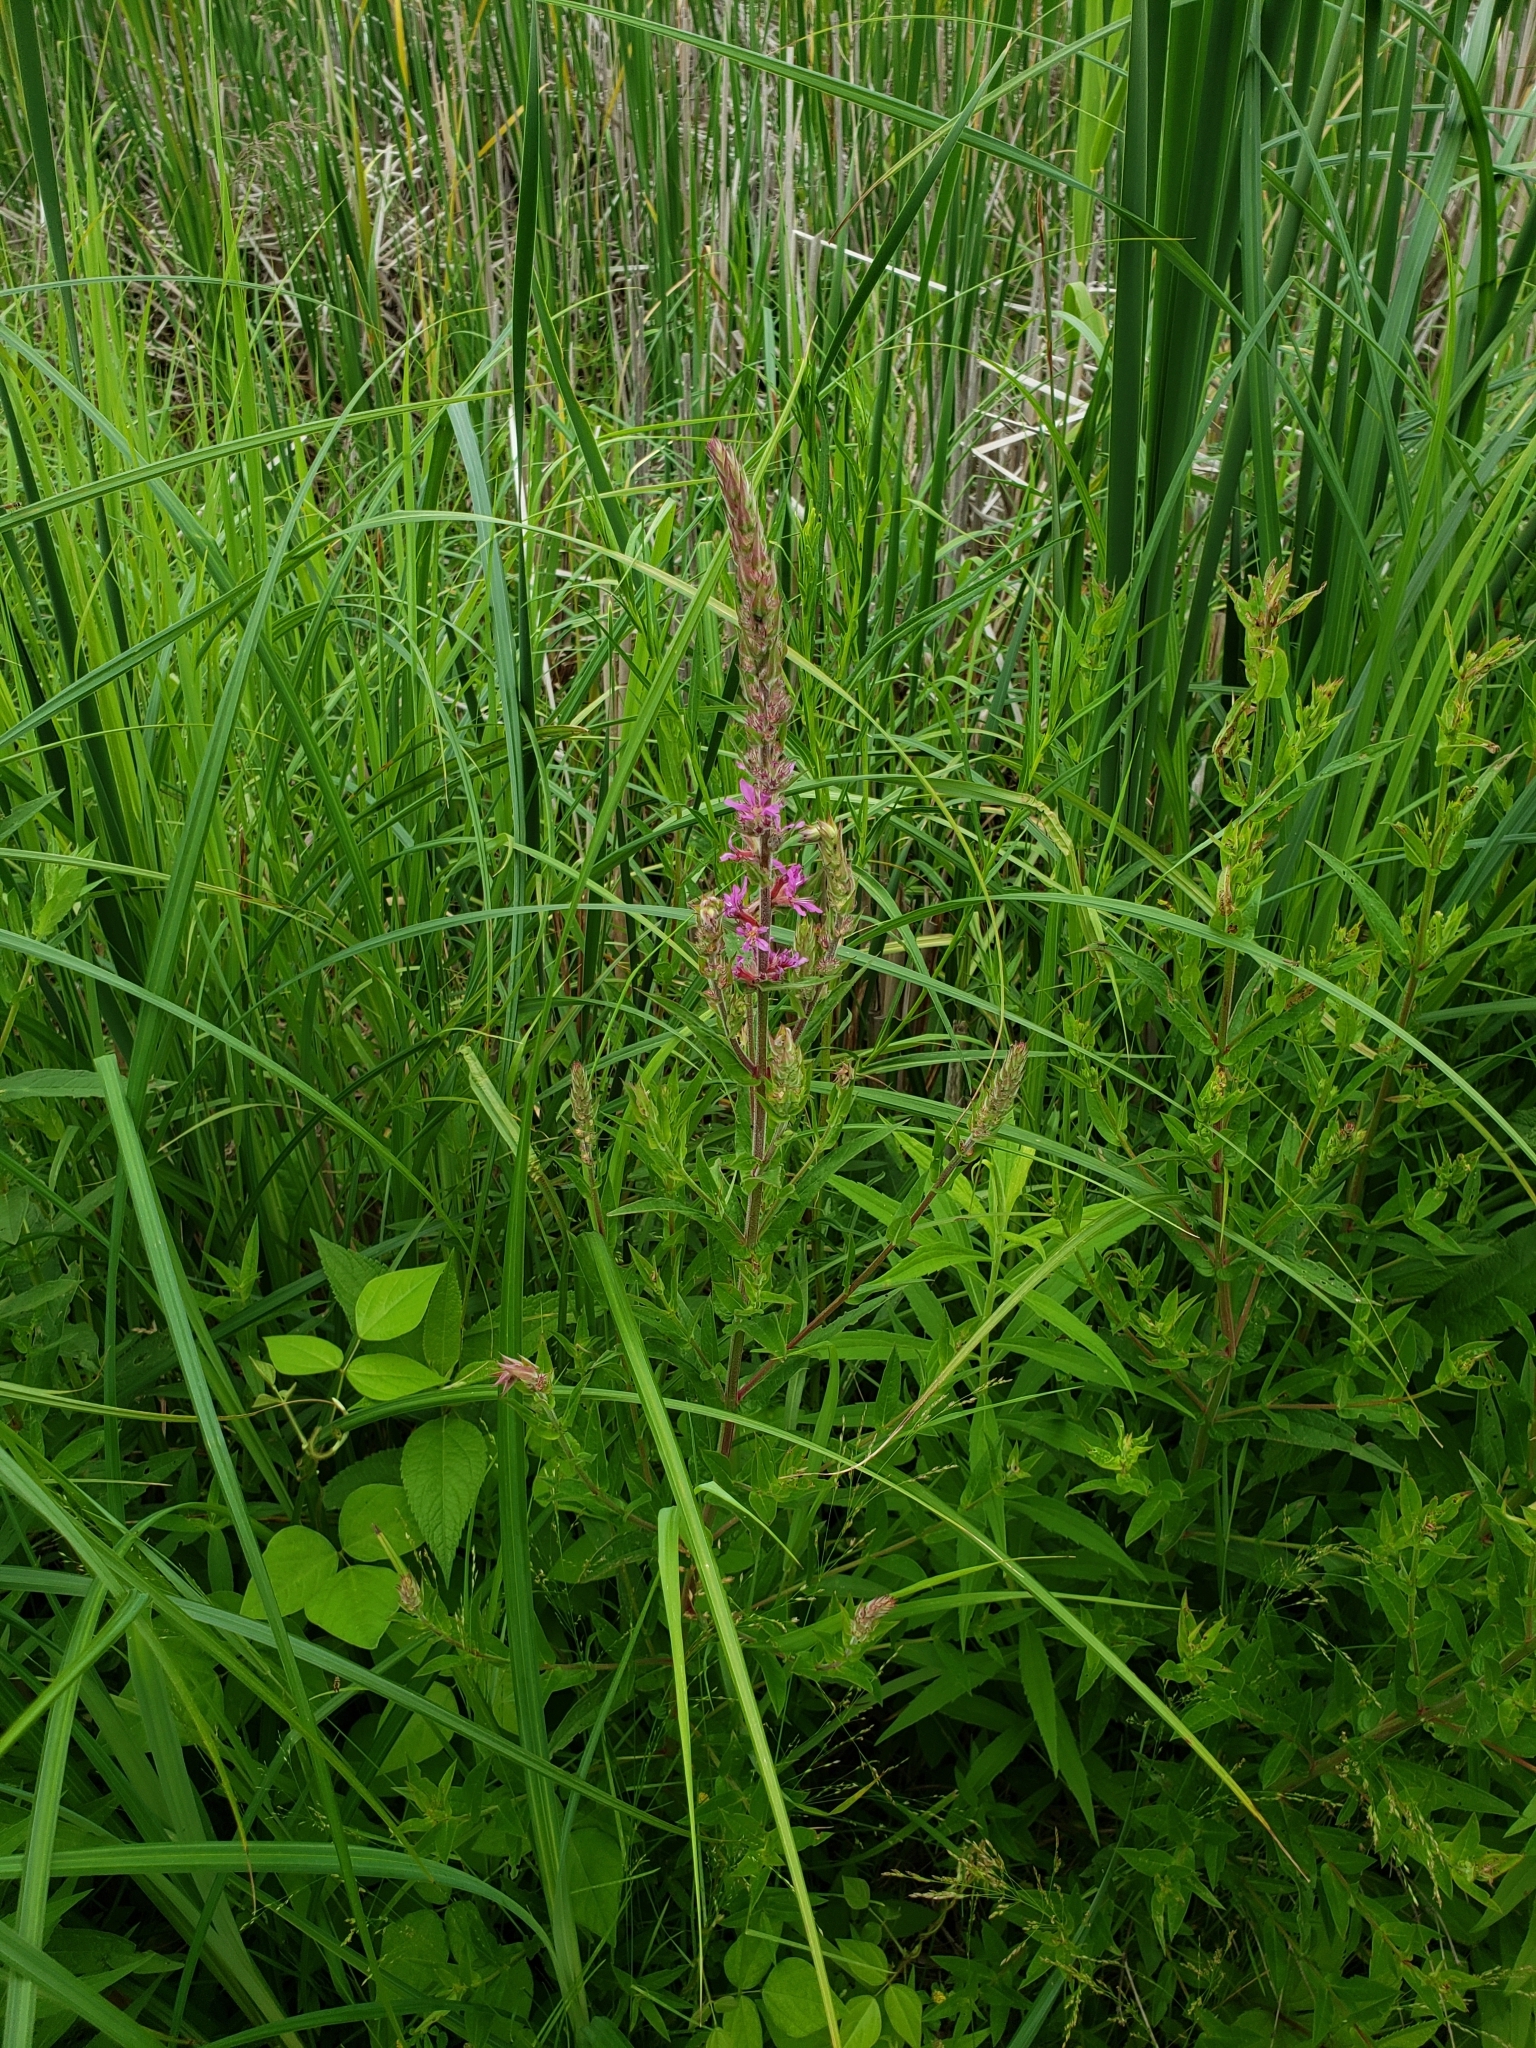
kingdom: Plantae
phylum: Tracheophyta
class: Magnoliopsida
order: Myrtales
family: Lythraceae
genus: Lythrum
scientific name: Lythrum salicaria
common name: Purple loosestrife
